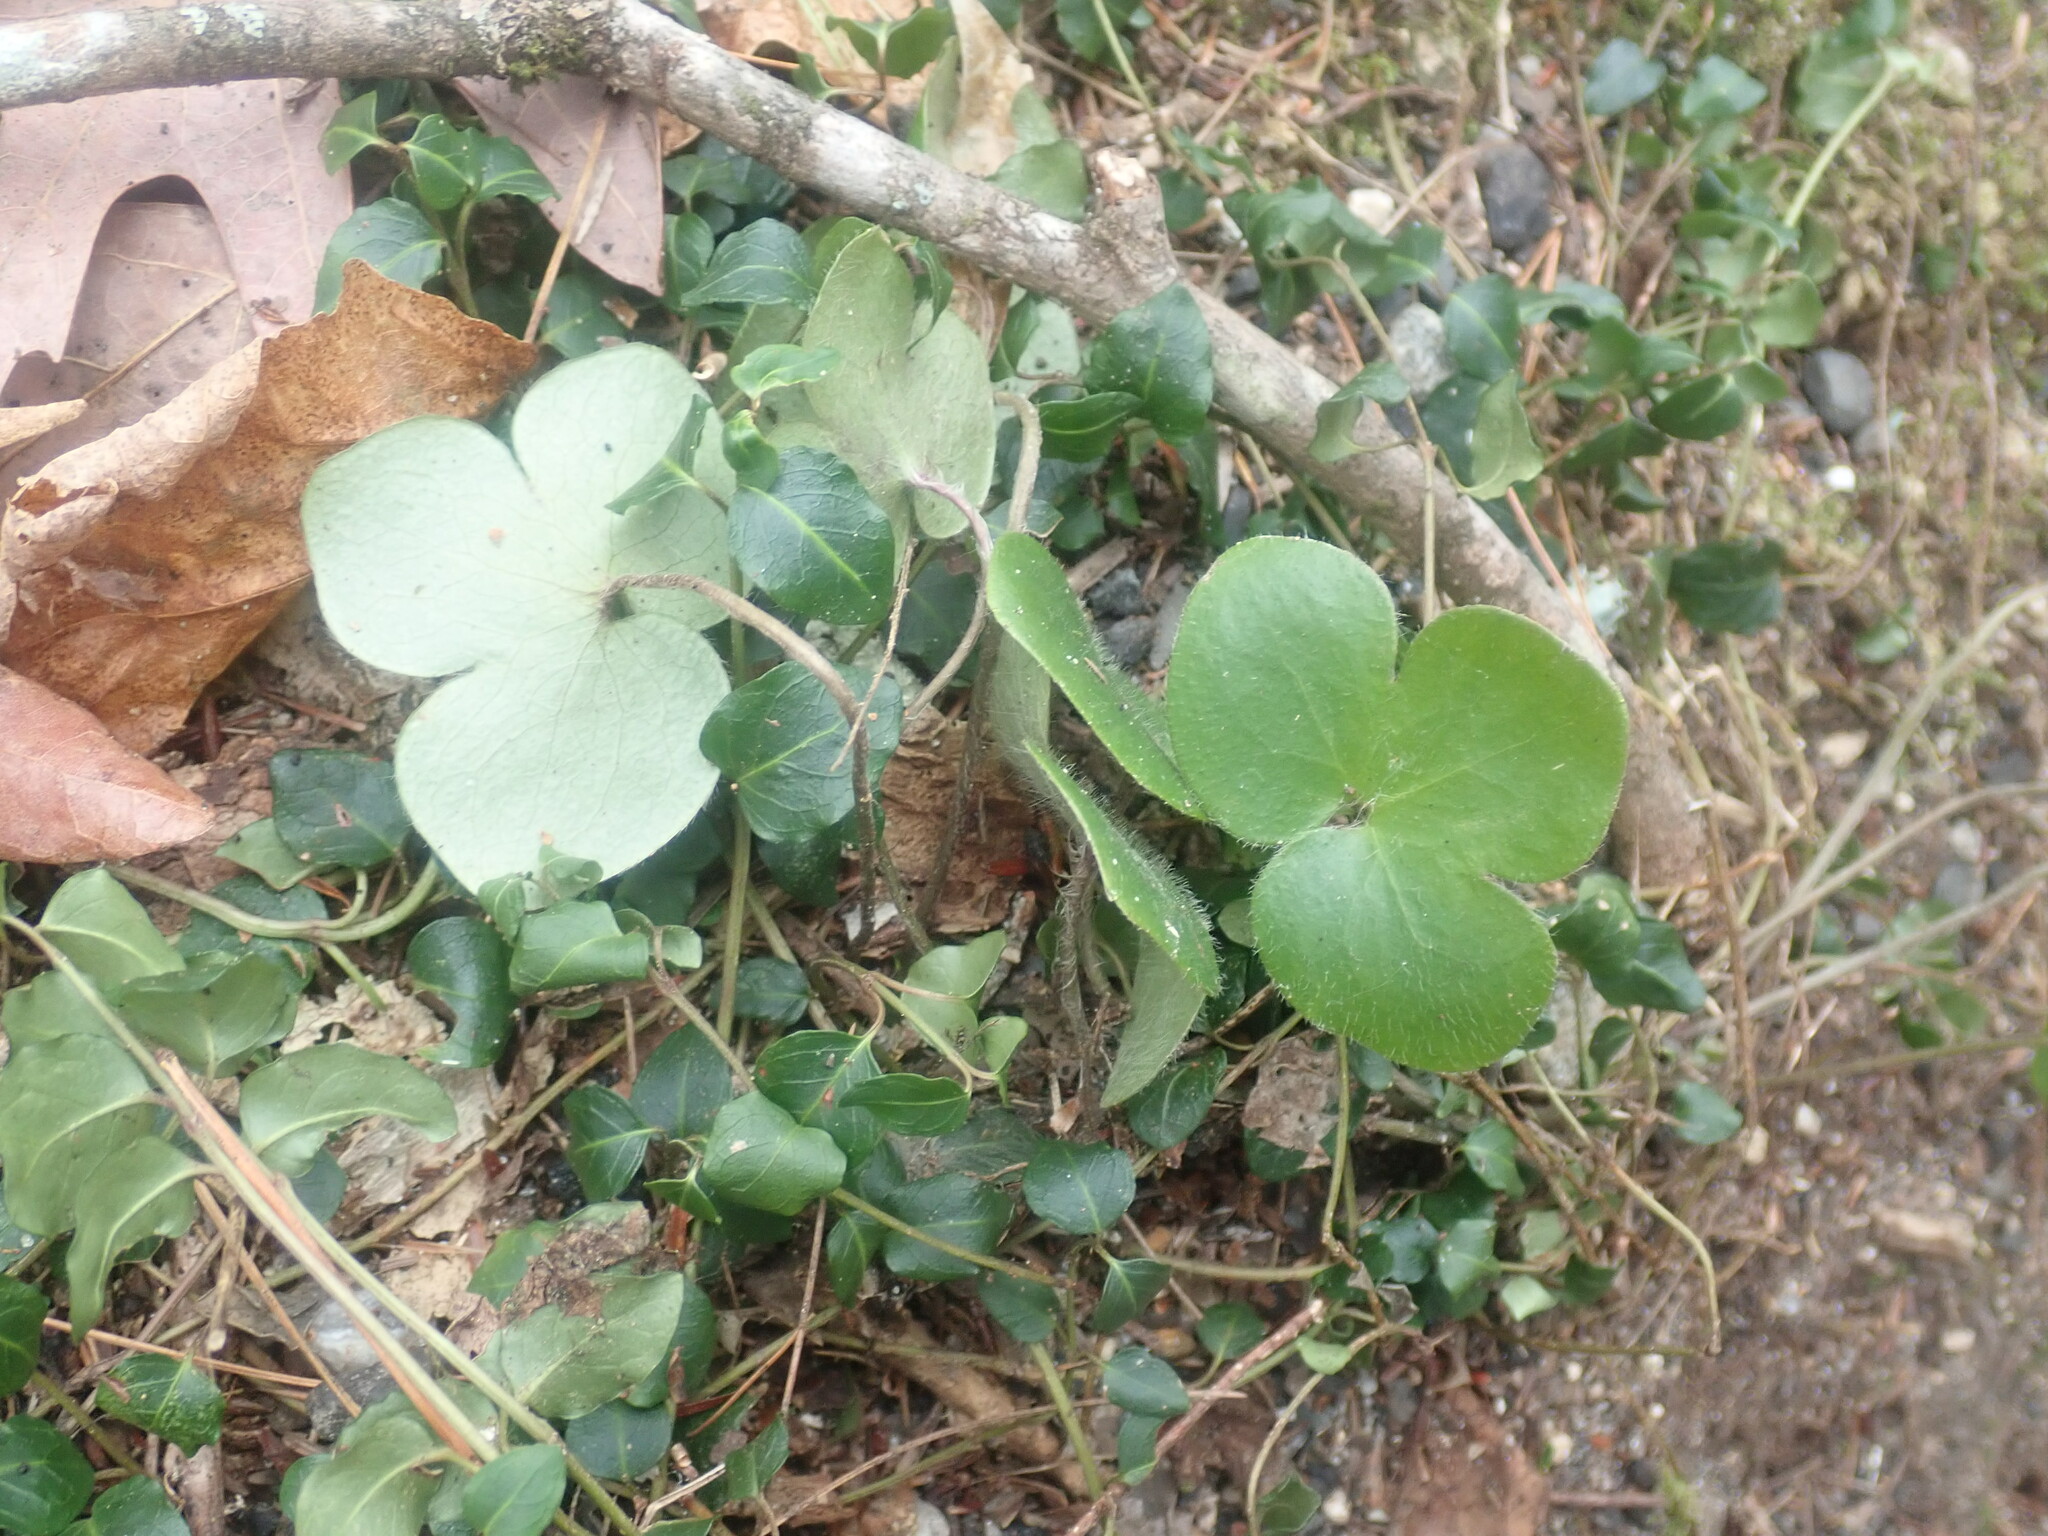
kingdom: Plantae
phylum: Tracheophyta
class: Magnoliopsida
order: Ranunculales
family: Ranunculaceae
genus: Hepatica
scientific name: Hepatica americana
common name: American hepatica
